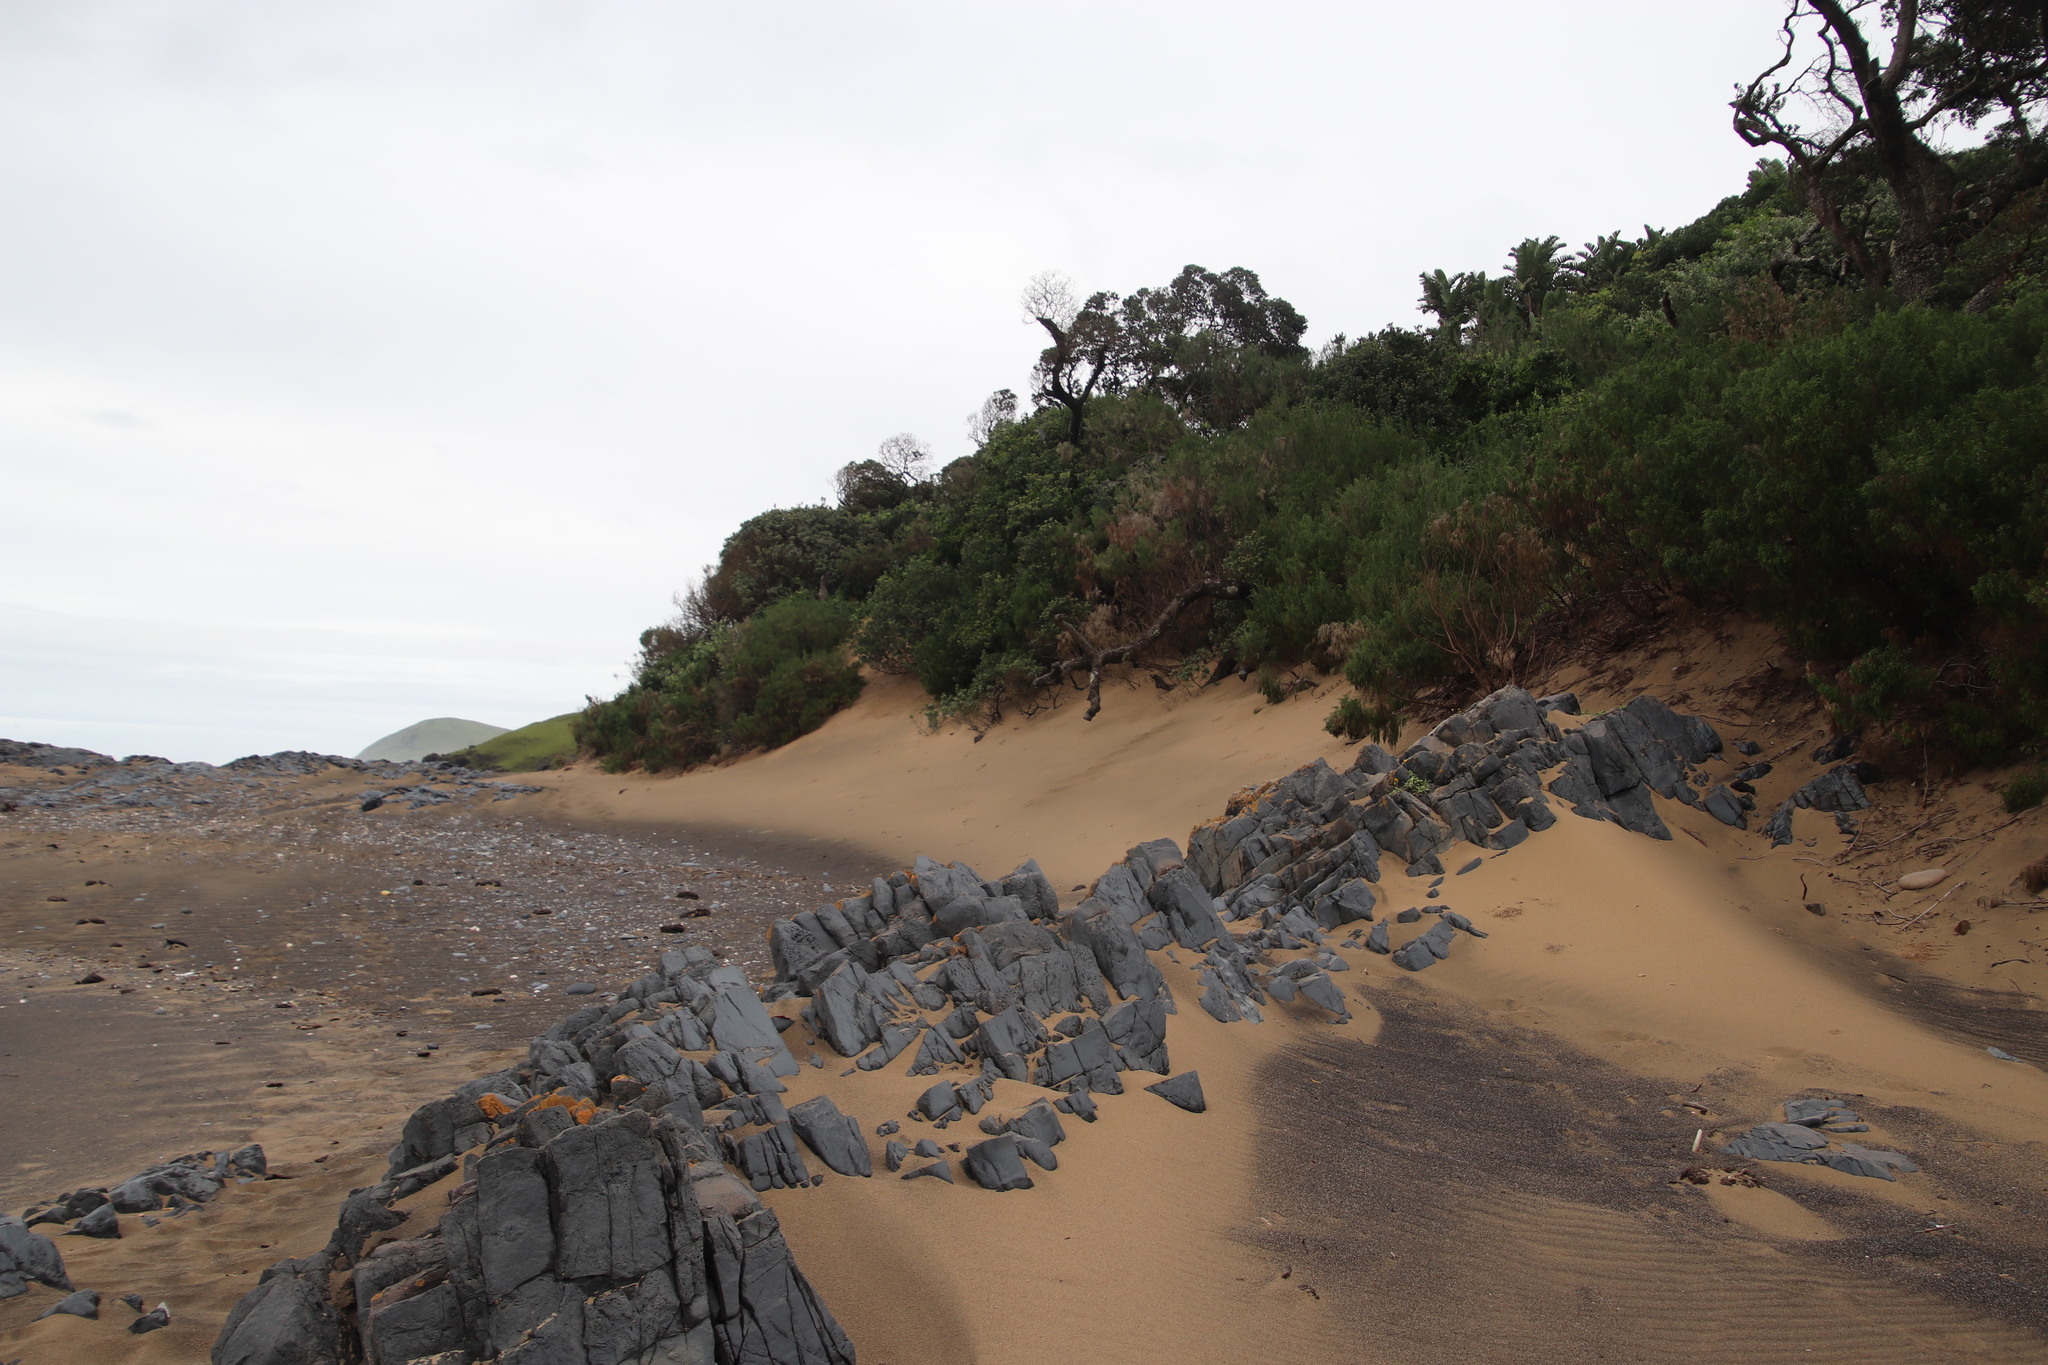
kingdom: Plantae
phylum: Tracheophyta
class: Magnoliopsida
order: Ericales
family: Sapotaceae
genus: Mimusops
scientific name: Mimusops caffra
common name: Coastal red milkwood
